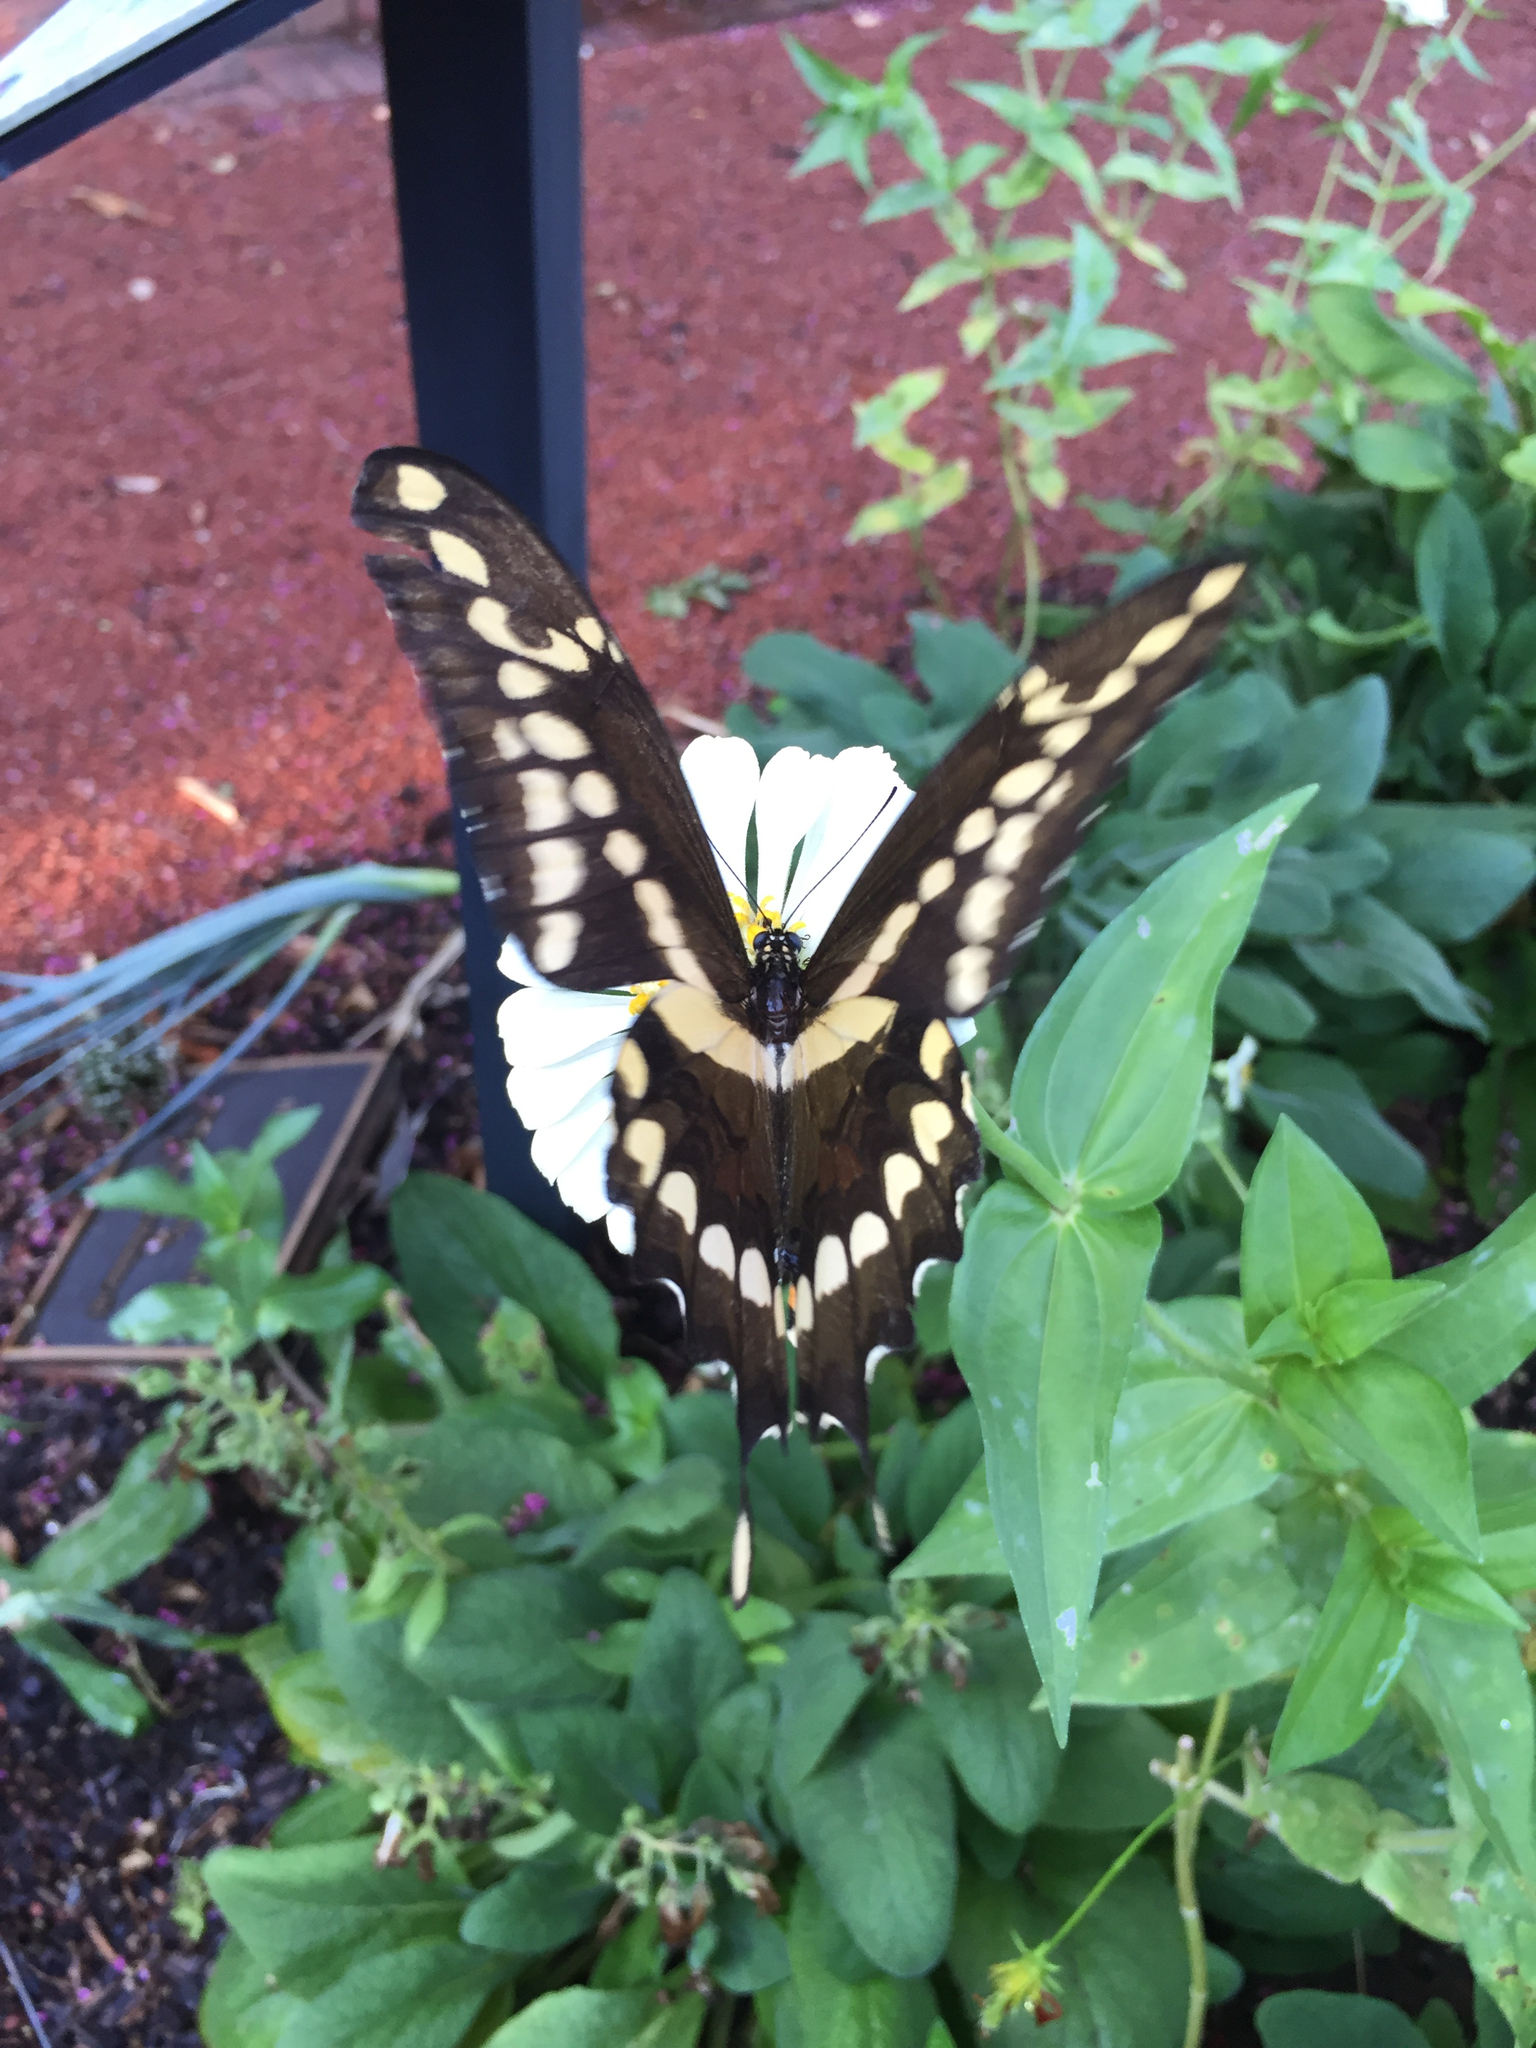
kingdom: Animalia
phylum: Arthropoda
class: Insecta
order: Lepidoptera
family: Papilionidae
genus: Papilio
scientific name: Papilio cresphontes
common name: Giant swallowtail
